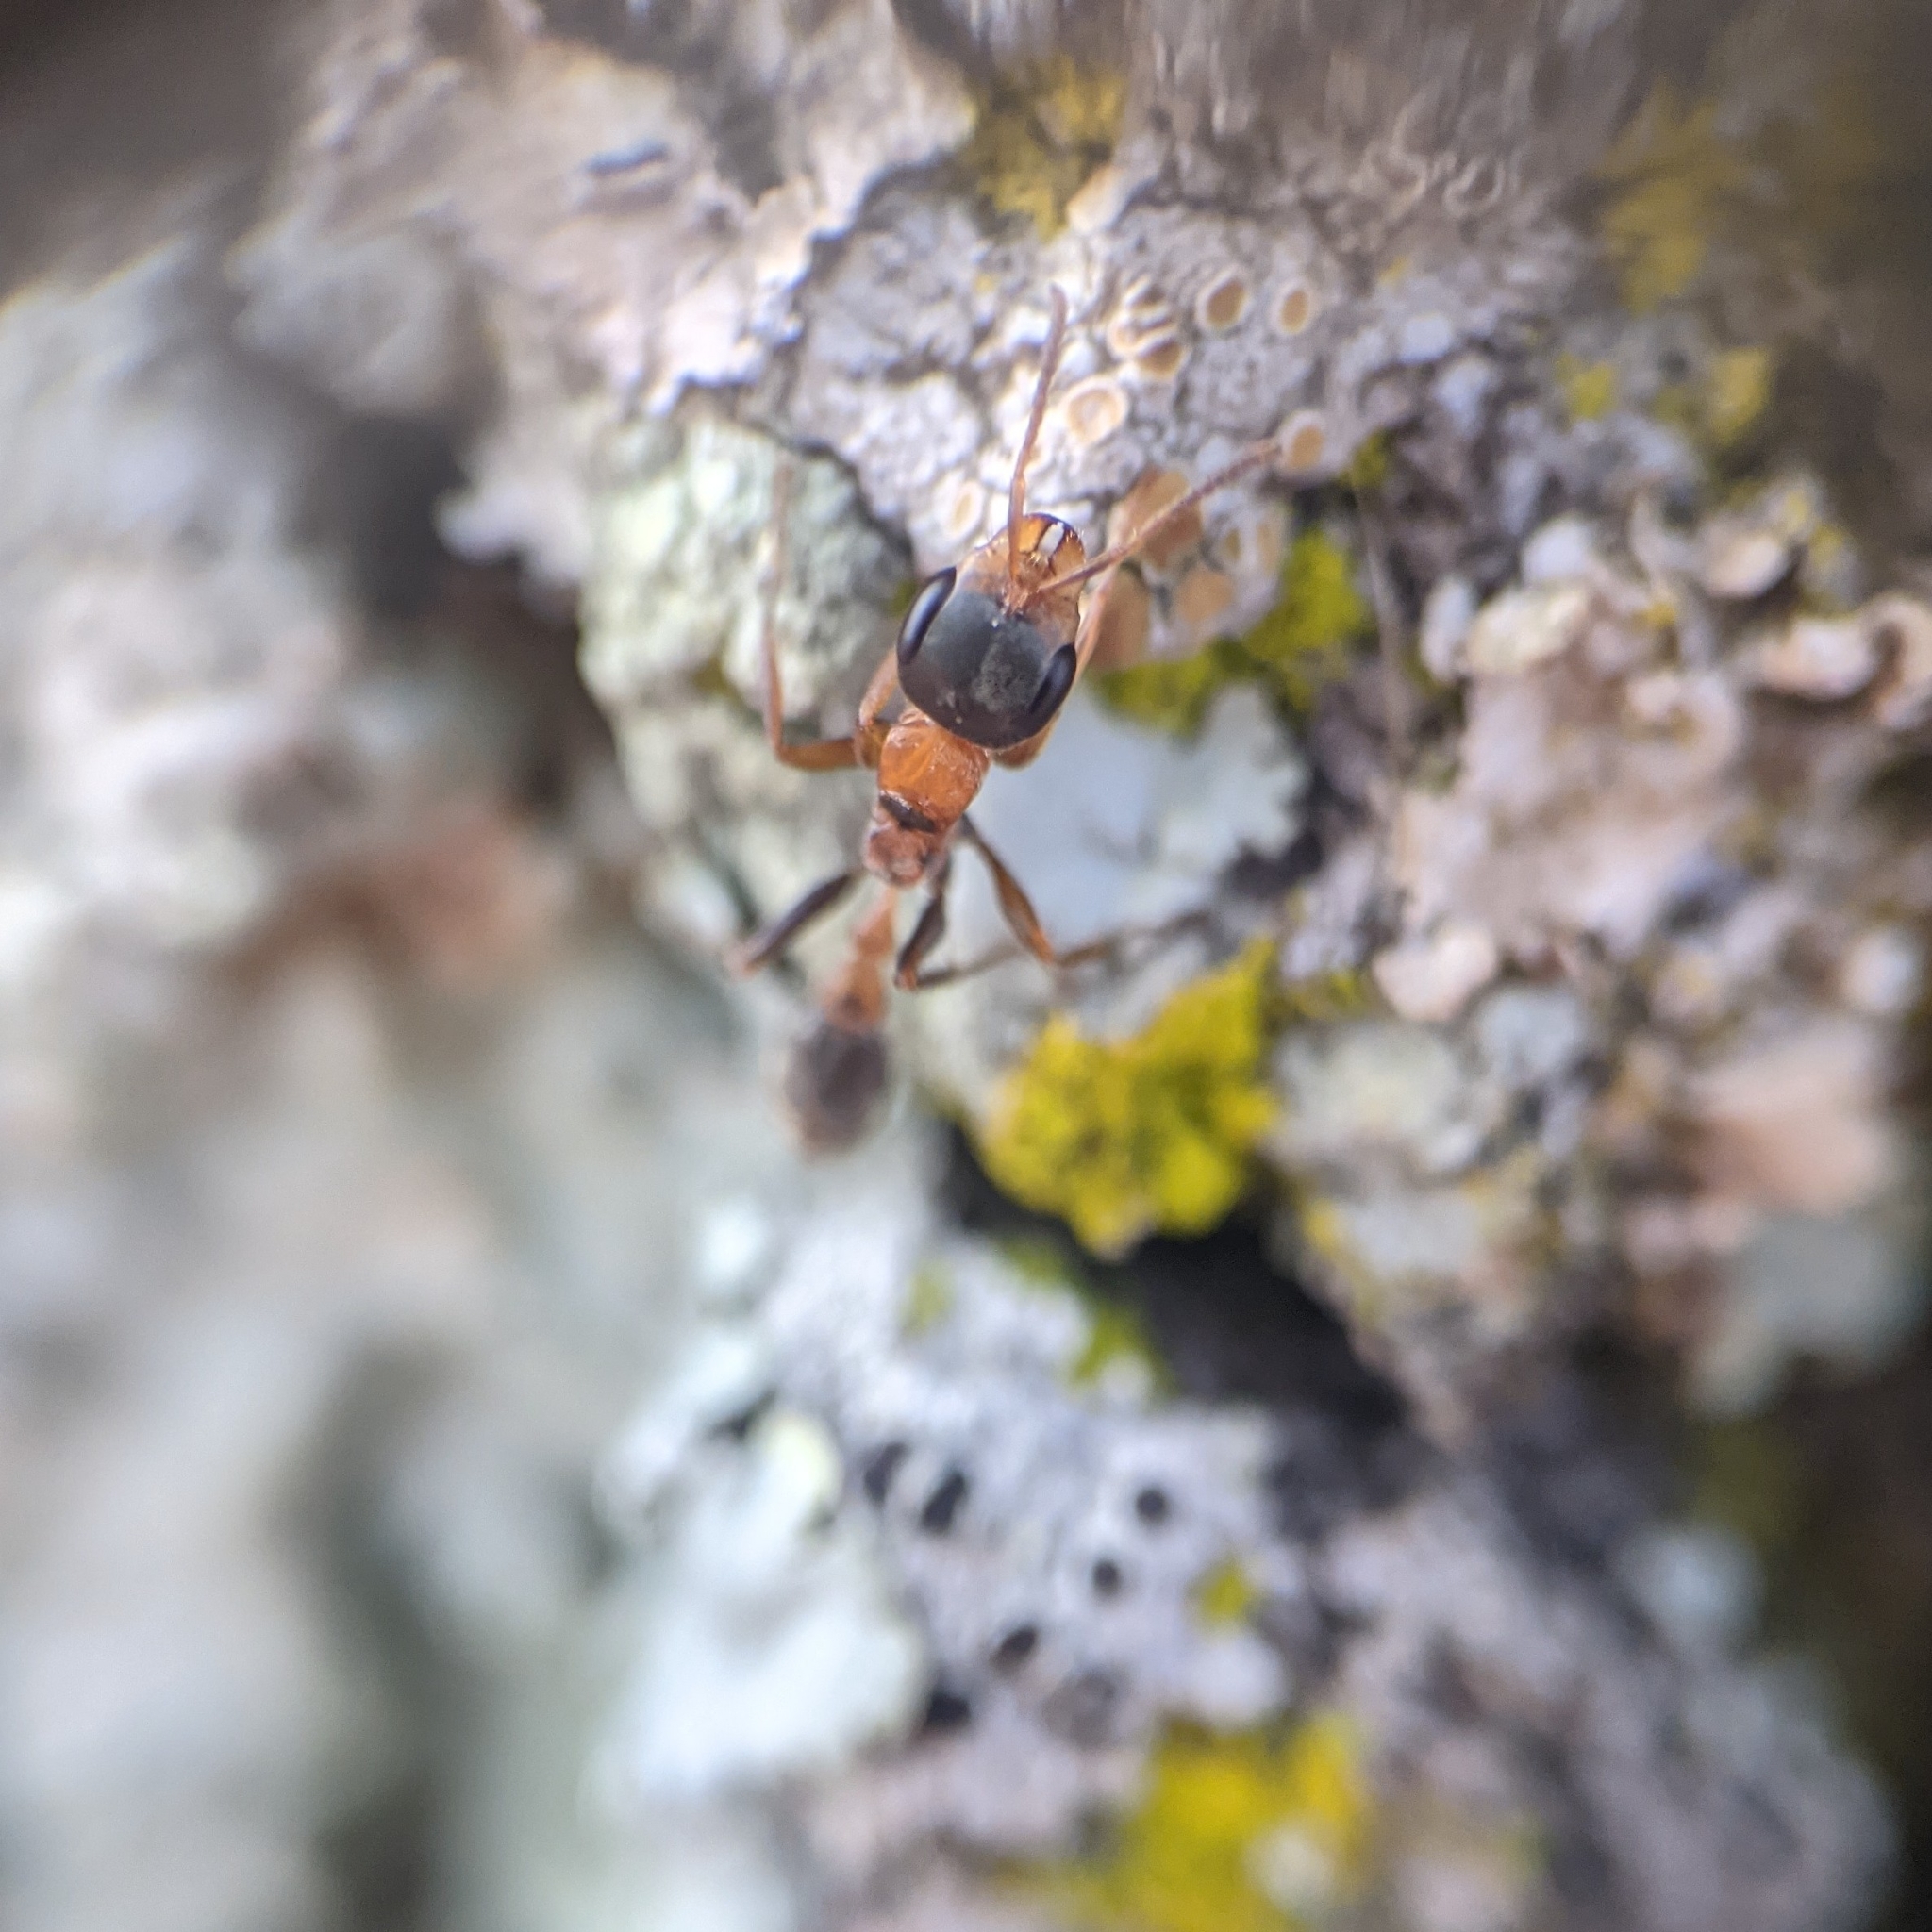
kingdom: Animalia
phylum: Arthropoda
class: Insecta
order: Hymenoptera
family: Formicidae
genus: Pseudomyrmex
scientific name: Pseudomyrmex gracilis
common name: Graceful twig ant
